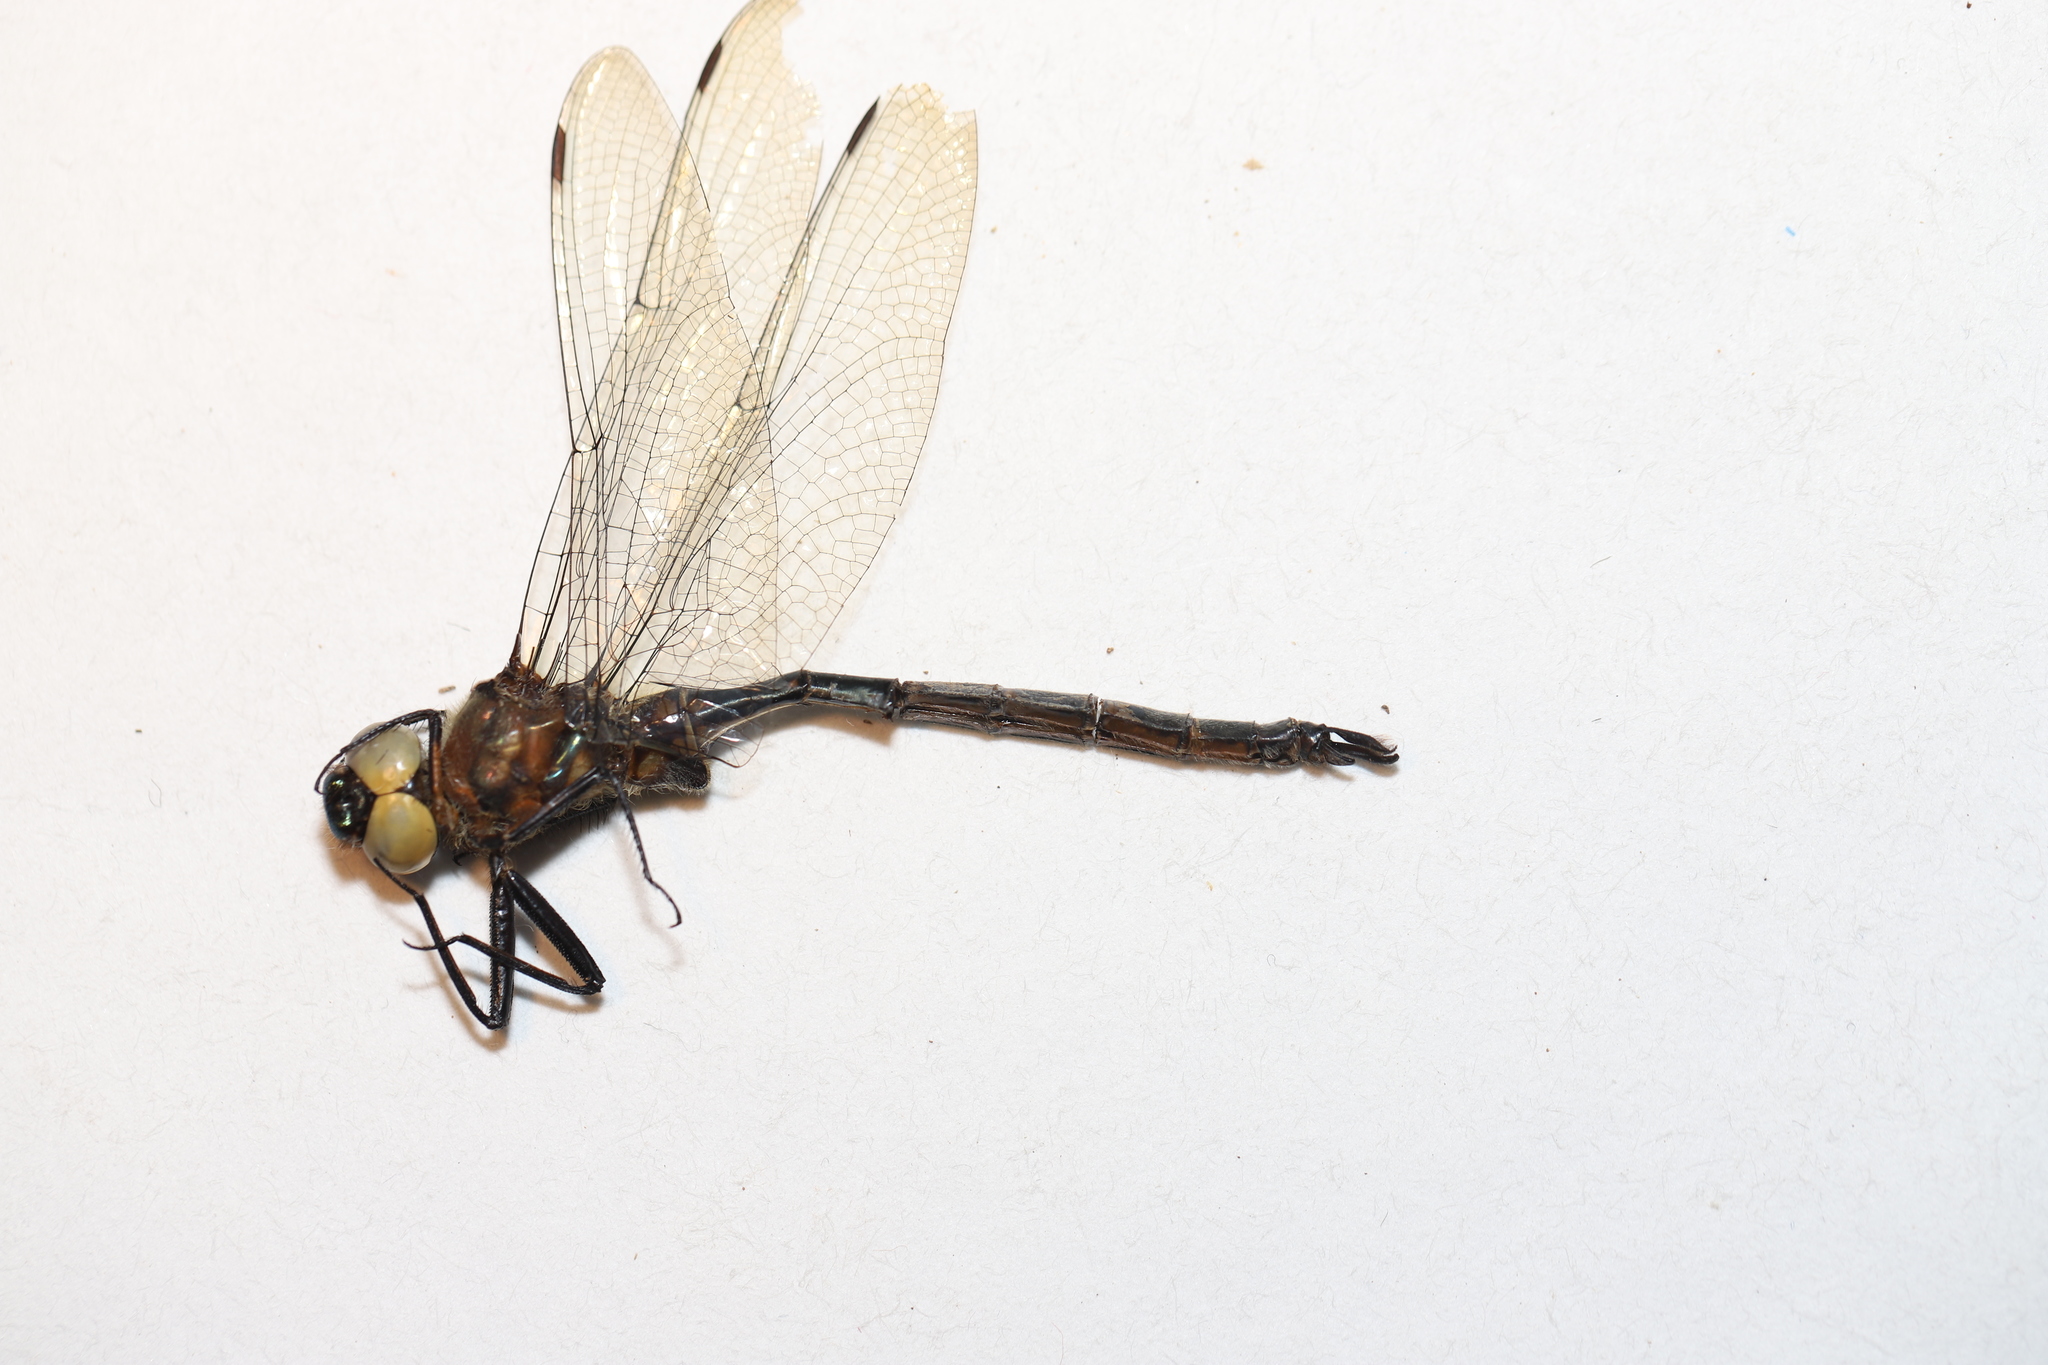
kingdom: Animalia
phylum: Arthropoda
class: Insecta
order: Odonata
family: Corduliidae
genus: Somatochlora
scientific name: Somatochlora williamsoni
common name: Williamson's emerald
